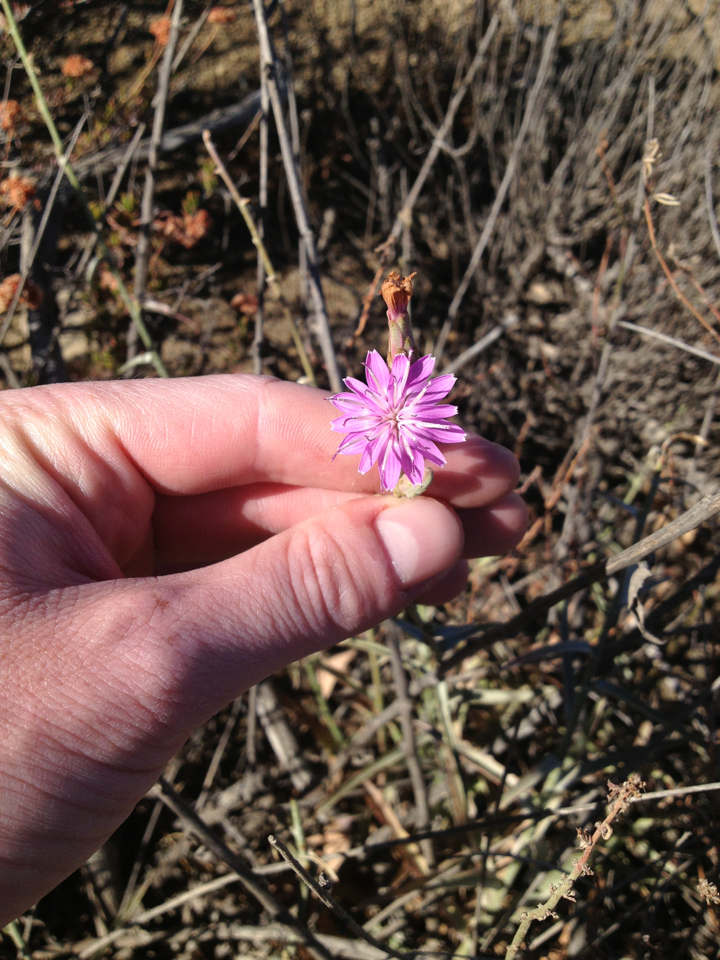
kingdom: Plantae
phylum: Tracheophyta
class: Magnoliopsida
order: Asterales
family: Asteraceae
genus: Stephanomeria
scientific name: Stephanomeria cichoriacea
